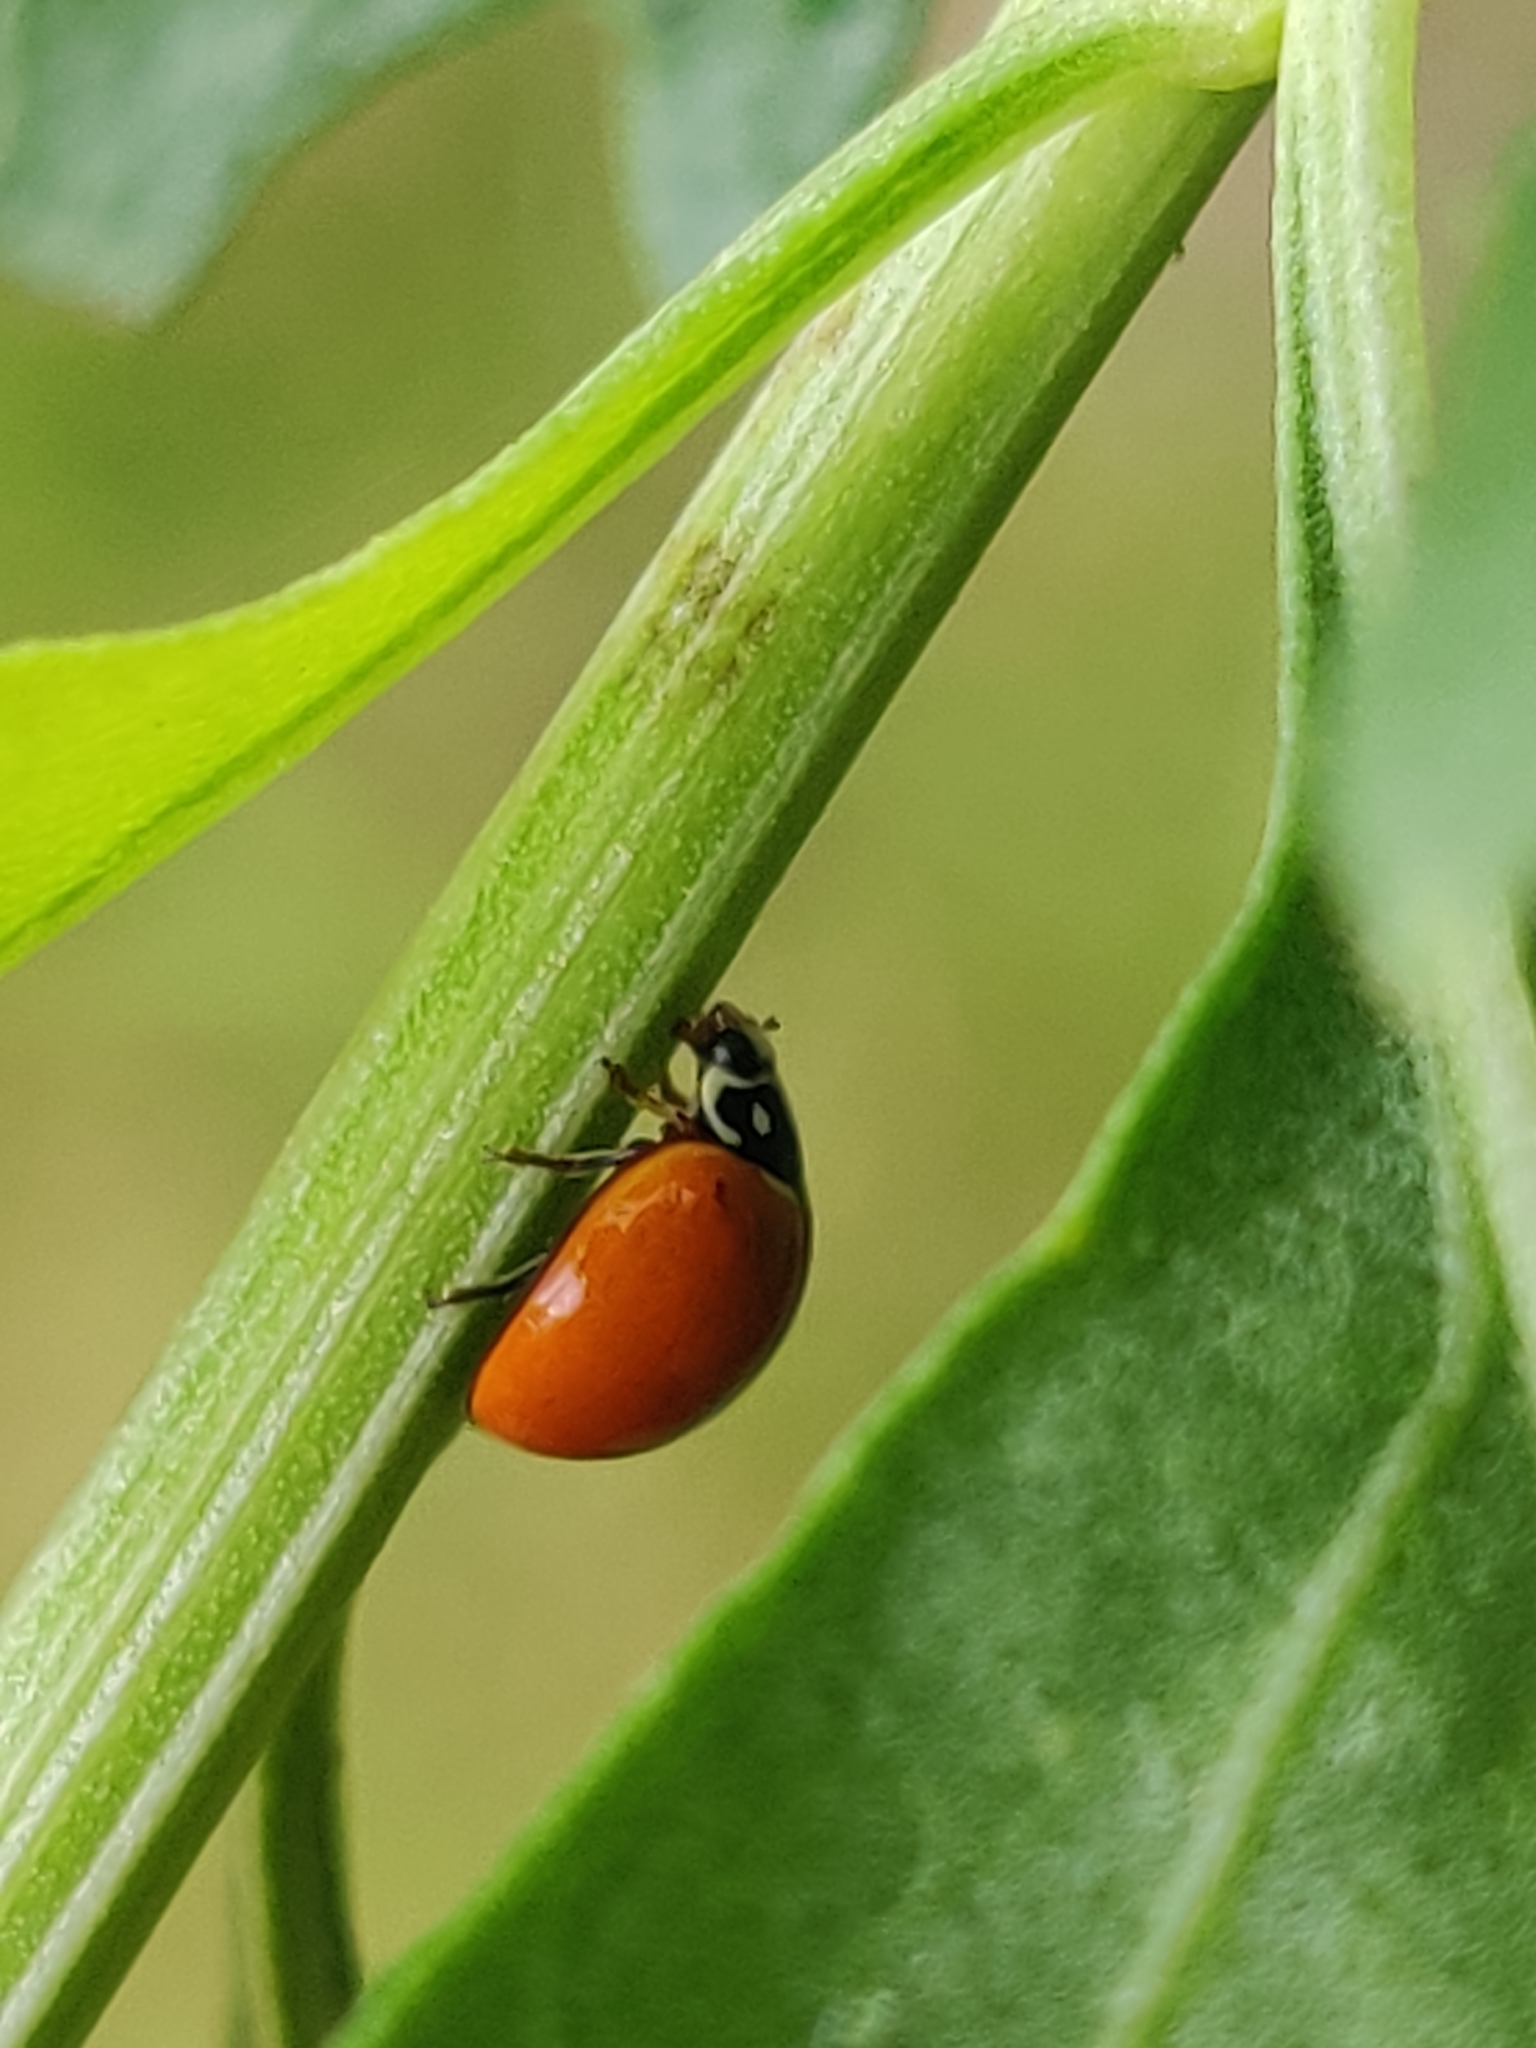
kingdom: Animalia
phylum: Arthropoda
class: Insecta
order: Coleoptera
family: Coccinellidae
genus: Cycloneda
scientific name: Cycloneda sanguinea
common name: Ladybird beetle
